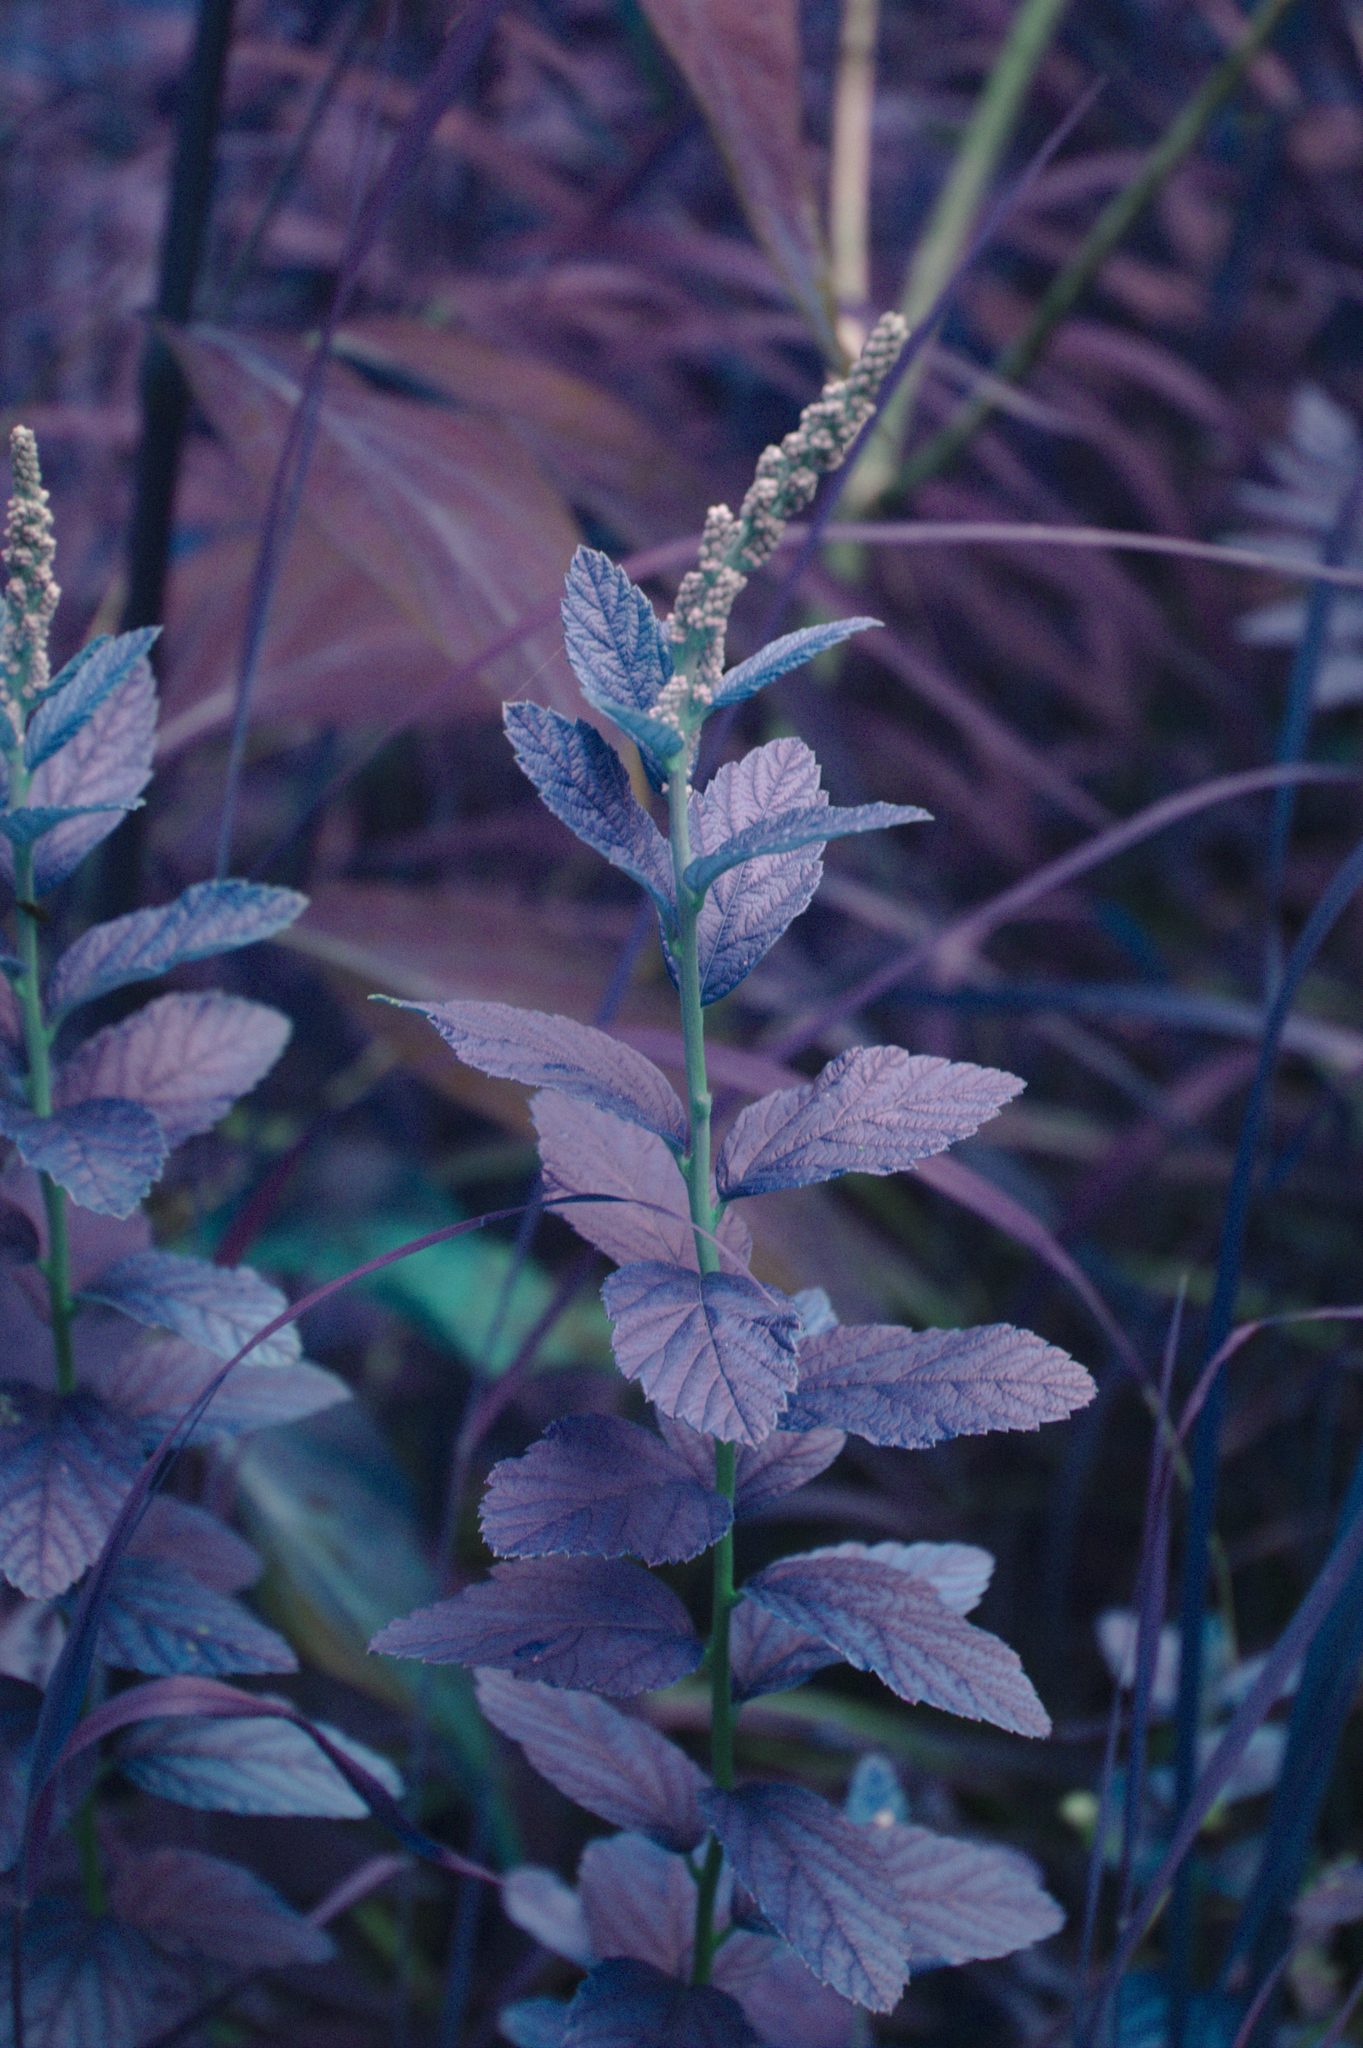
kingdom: Plantae
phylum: Tracheophyta
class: Magnoliopsida
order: Rosales
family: Rosaceae
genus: Spiraea
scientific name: Spiraea tomentosa
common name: Hardhack
